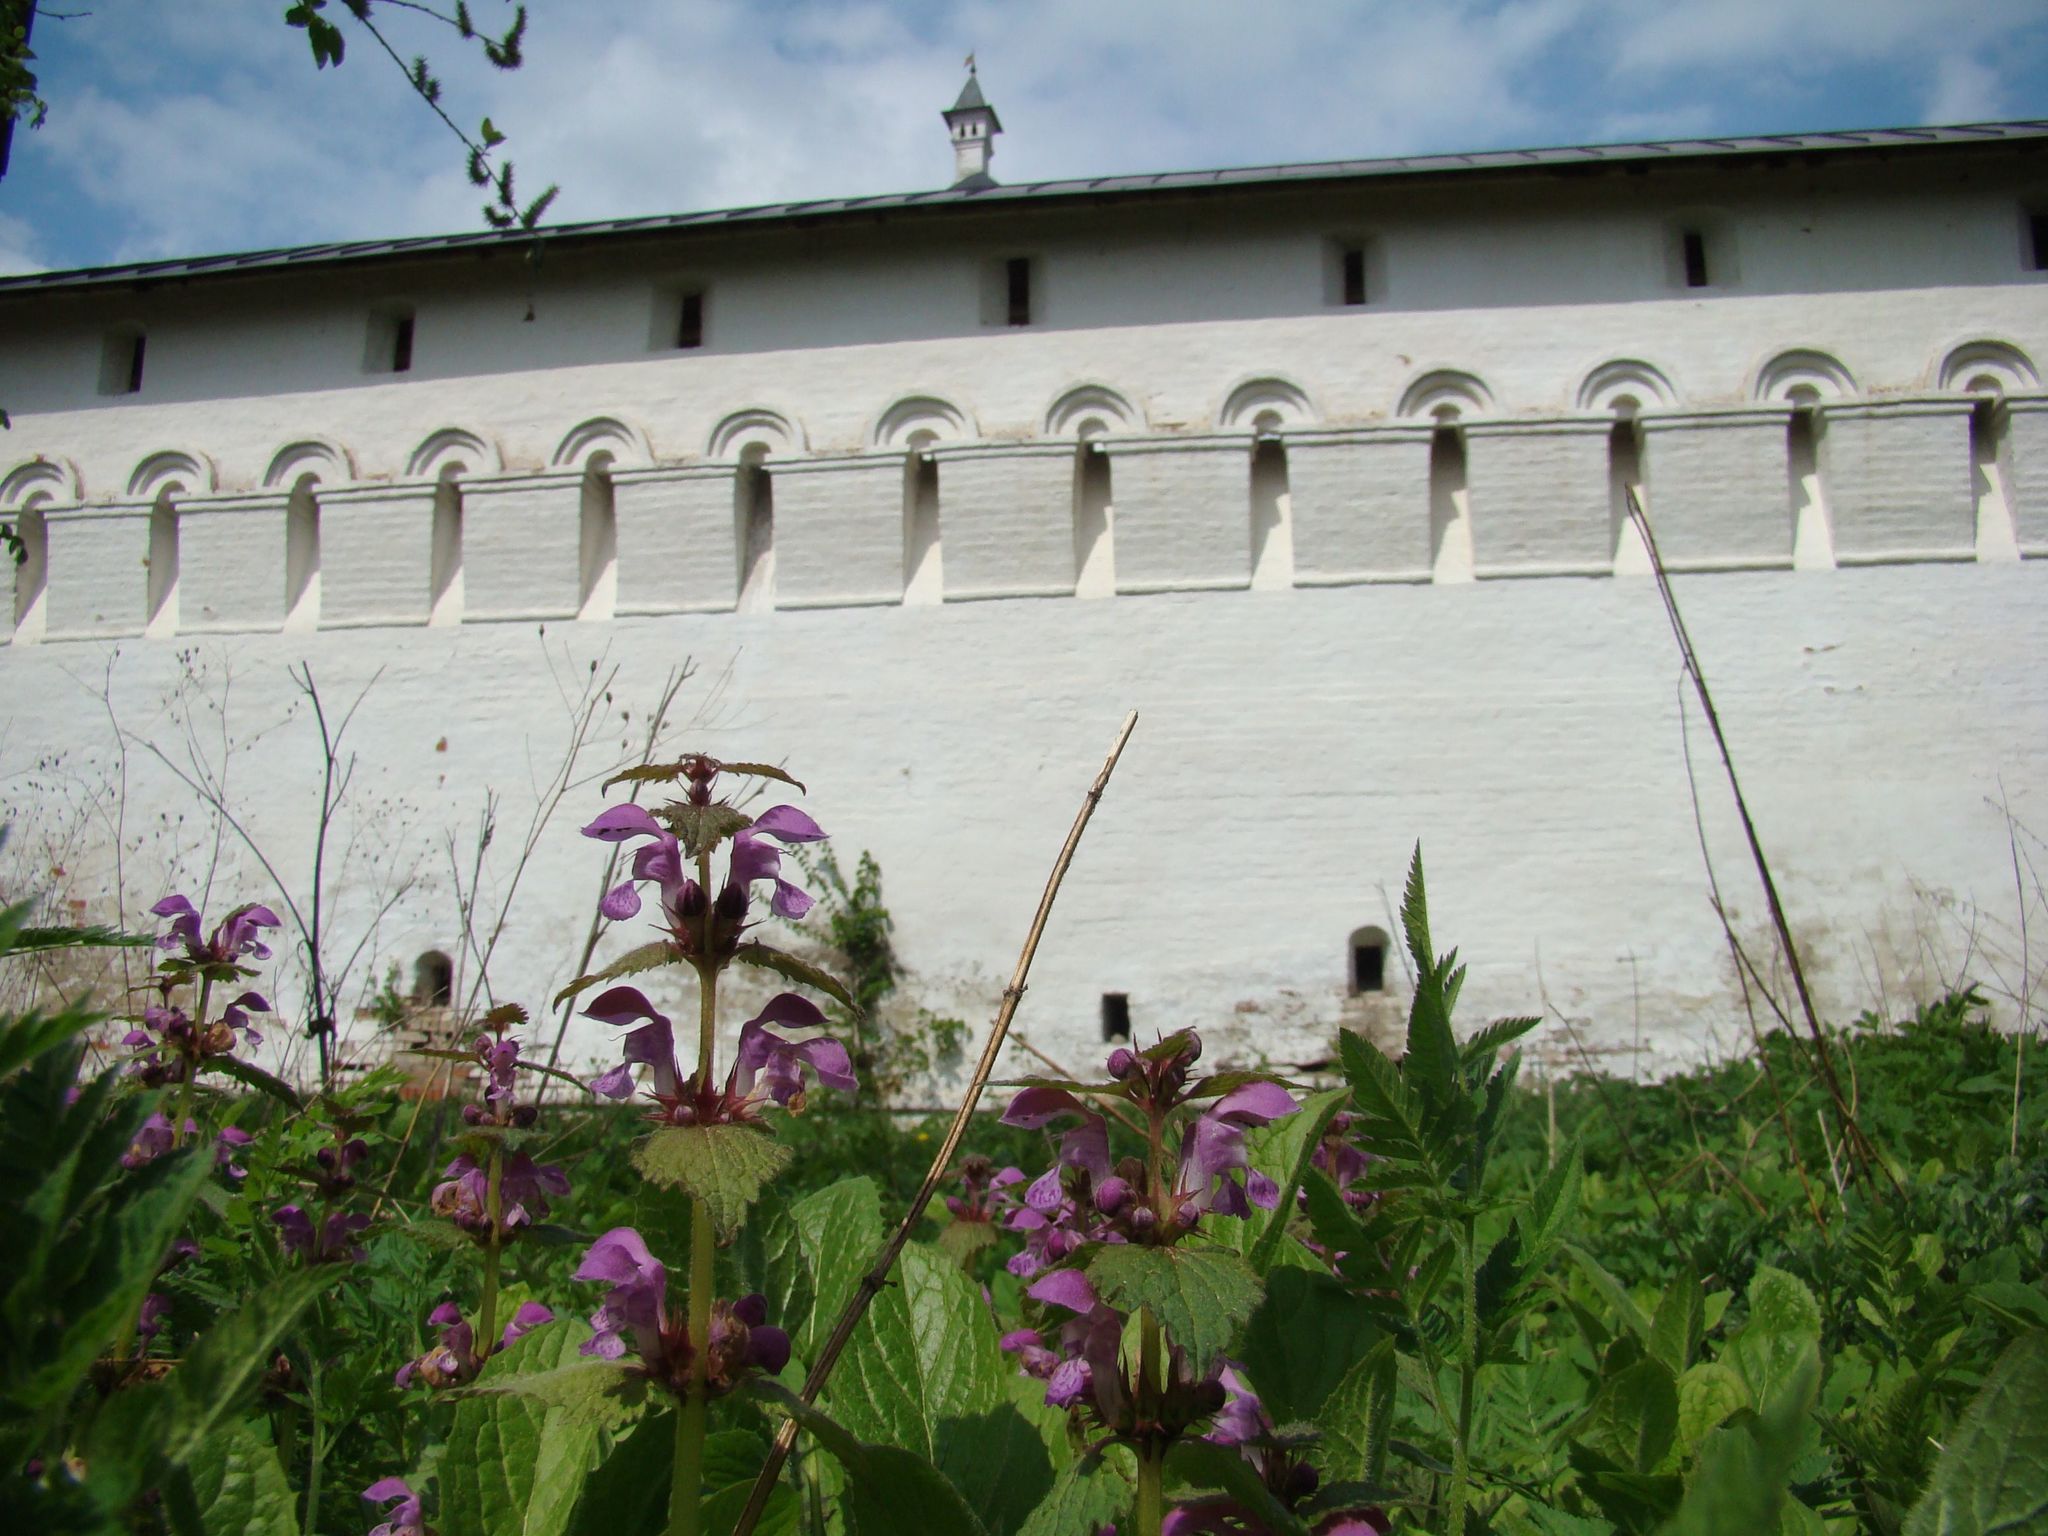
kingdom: Plantae
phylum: Tracheophyta
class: Magnoliopsida
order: Lamiales
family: Lamiaceae
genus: Lamium
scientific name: Lamium maculatum
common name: Spotted dead-nettle
